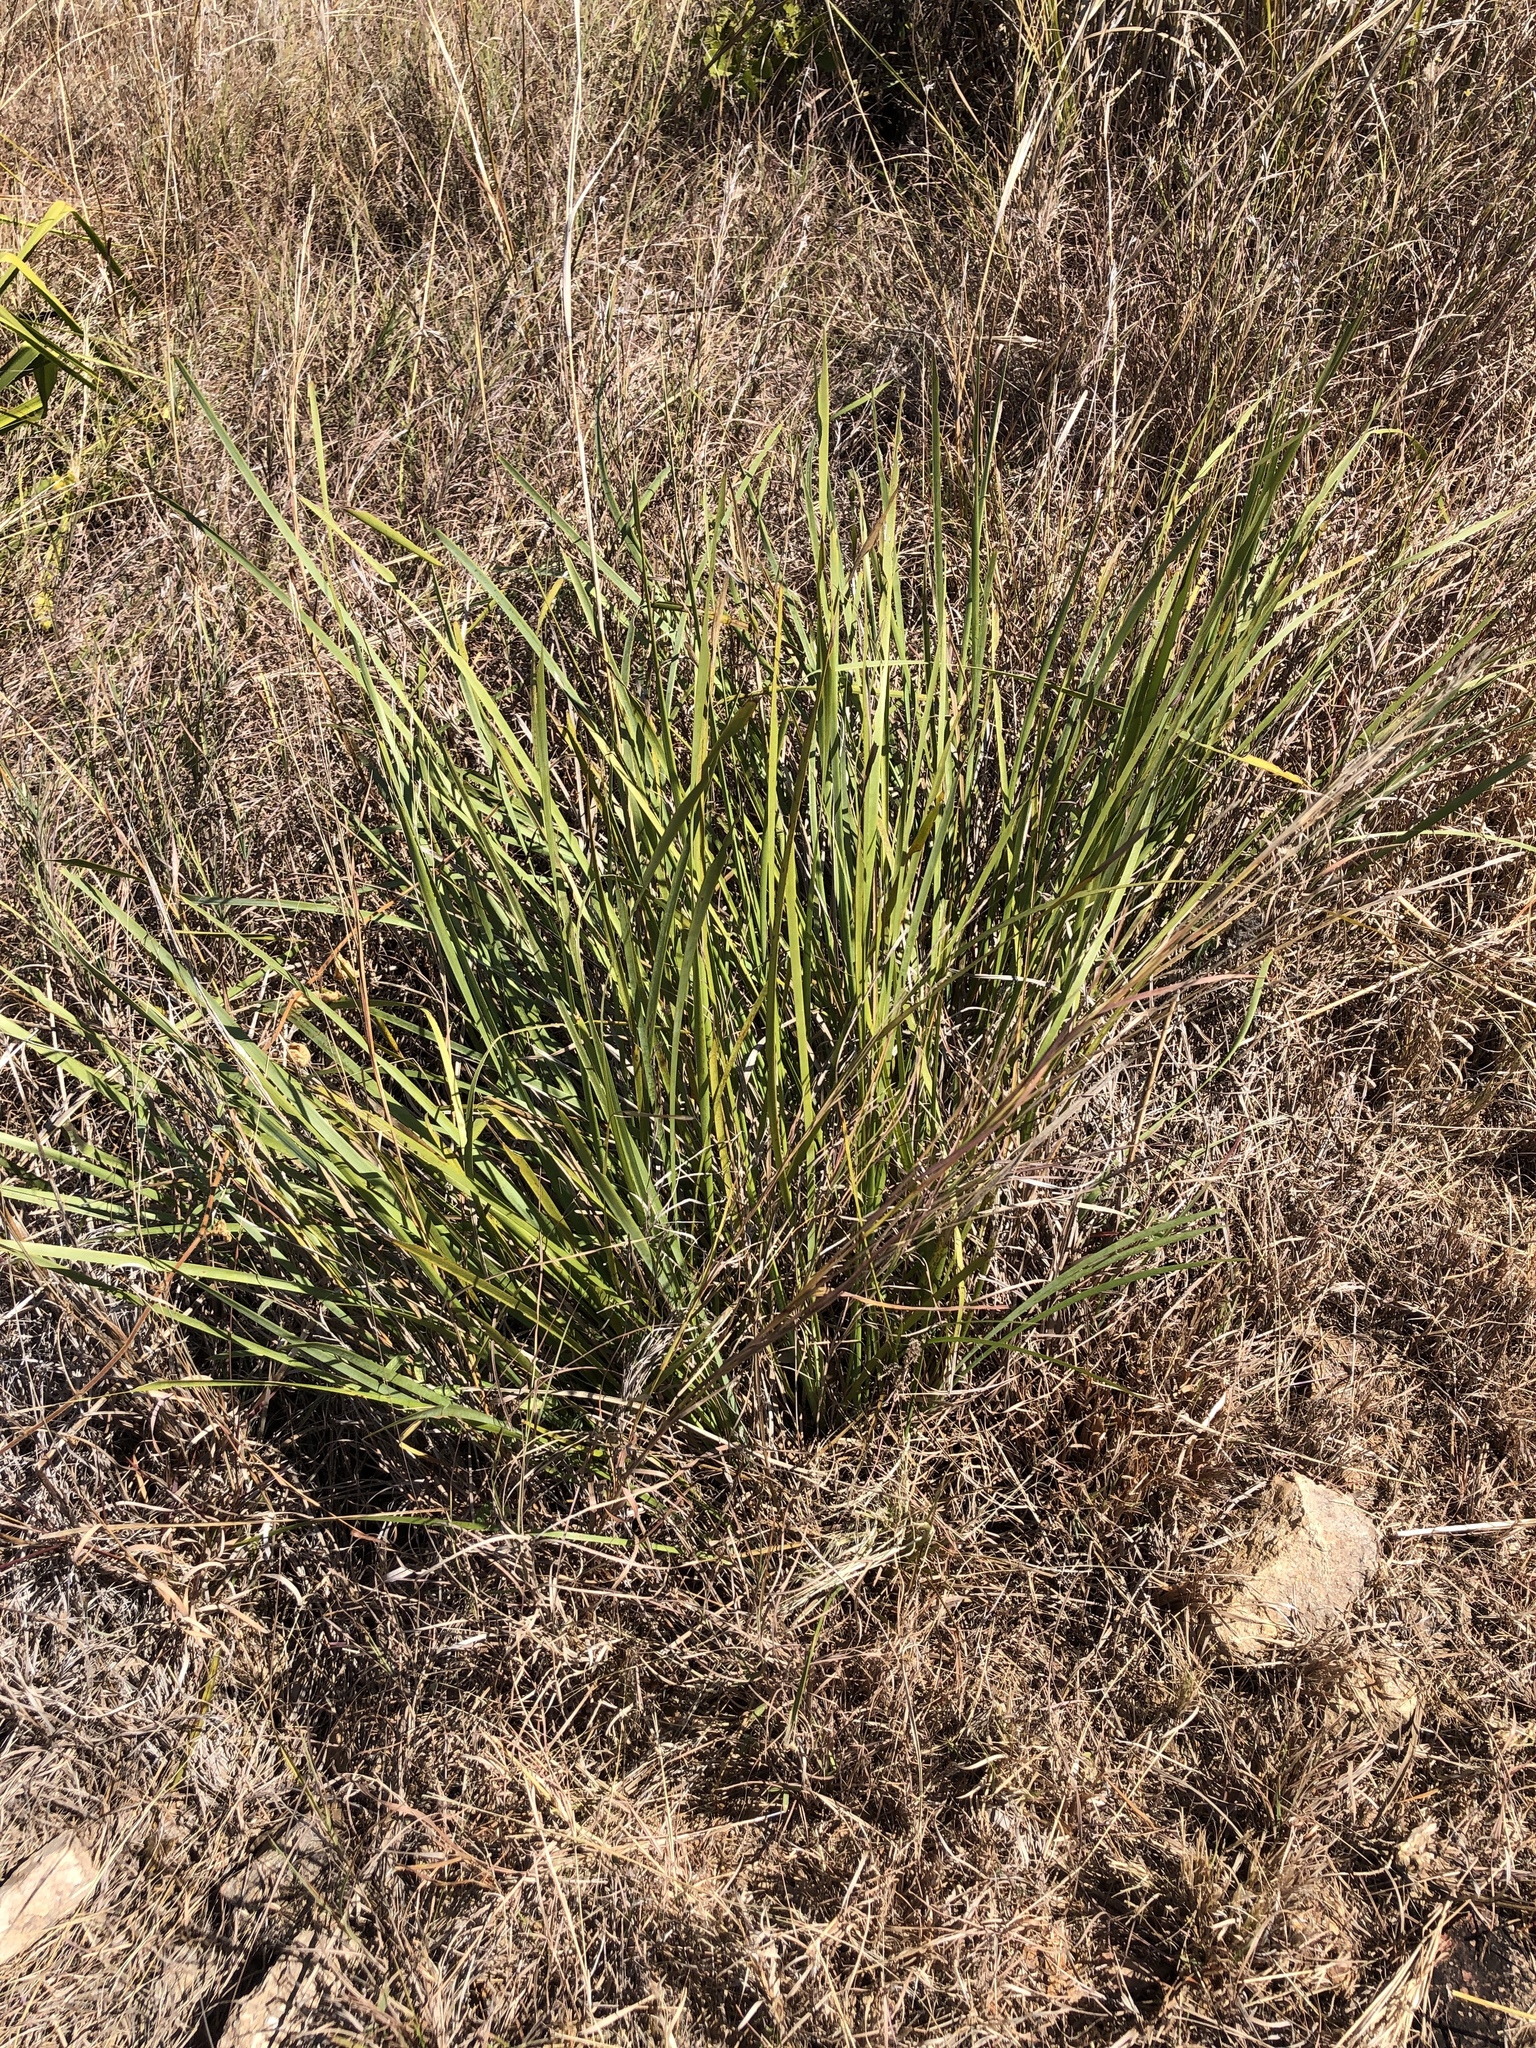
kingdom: Plantae
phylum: Tracheophyta
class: Liliopsida
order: Asparagales
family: Asparagaceae
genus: Lomandra
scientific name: Lomandra longifolia
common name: Longleaf mat-rush
